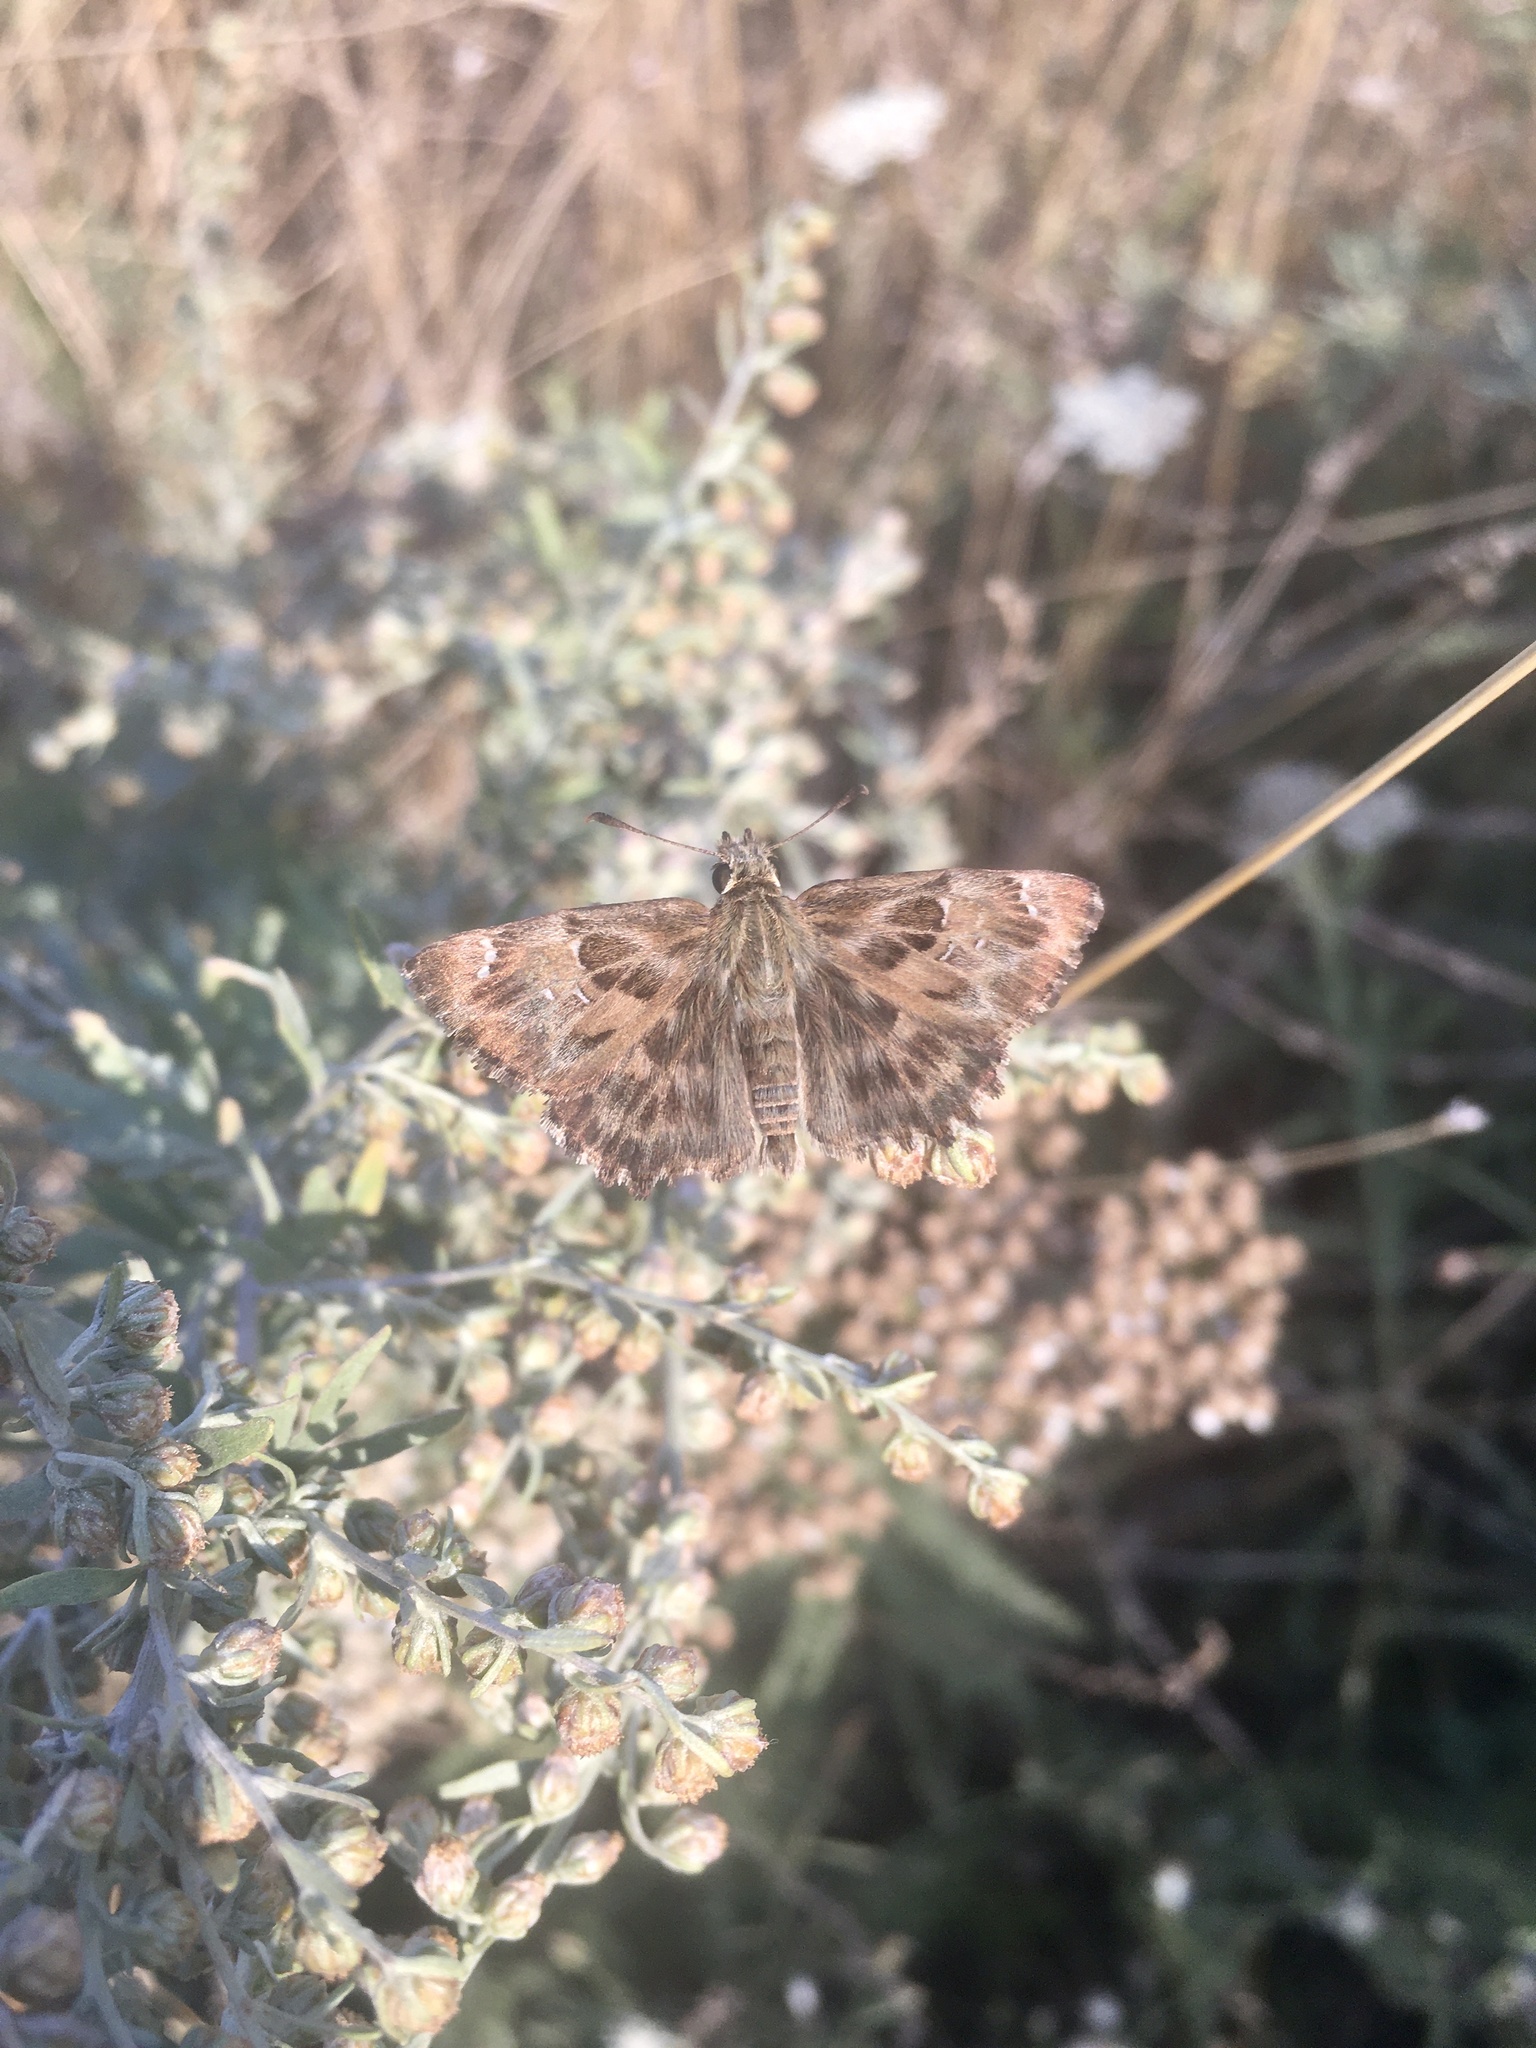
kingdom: Animalia
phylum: Arthropoda
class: Insecta
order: Lepidoptera
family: Hesperiidae
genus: Carcharodus
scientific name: Carcharodus alceae
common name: Mallow skipper
